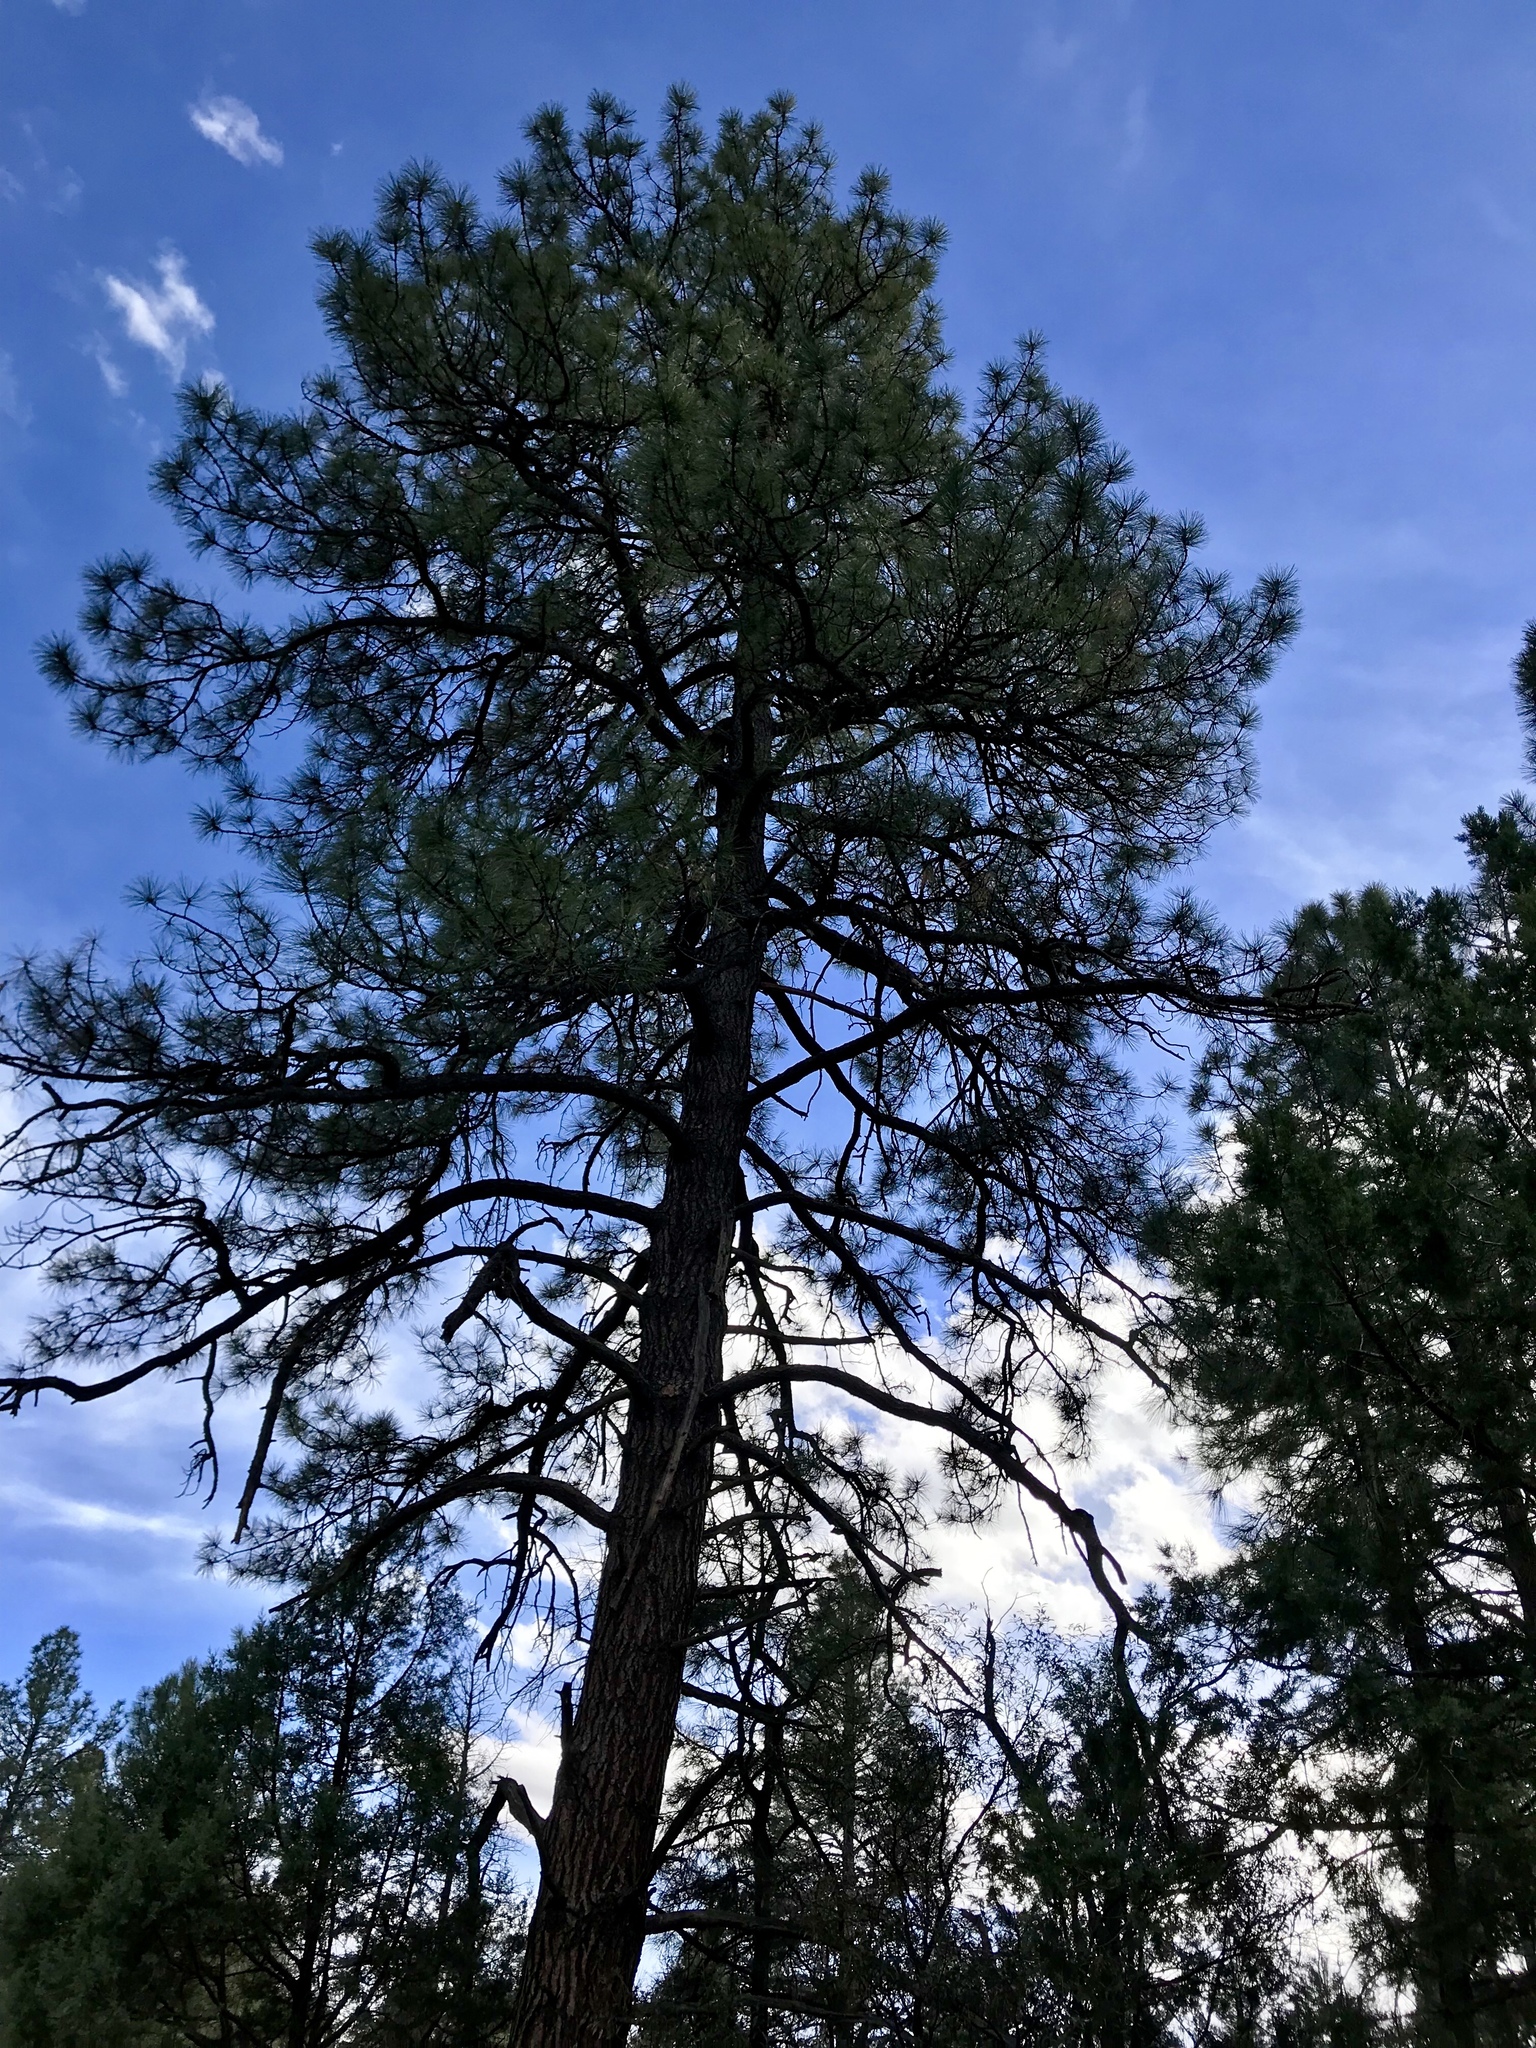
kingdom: Plantae
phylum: Tracheophyta
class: Pinopsida
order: Pinales
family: Pinaceae
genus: Pinus
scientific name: Pinus ponderosa
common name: Western yellow-pine
